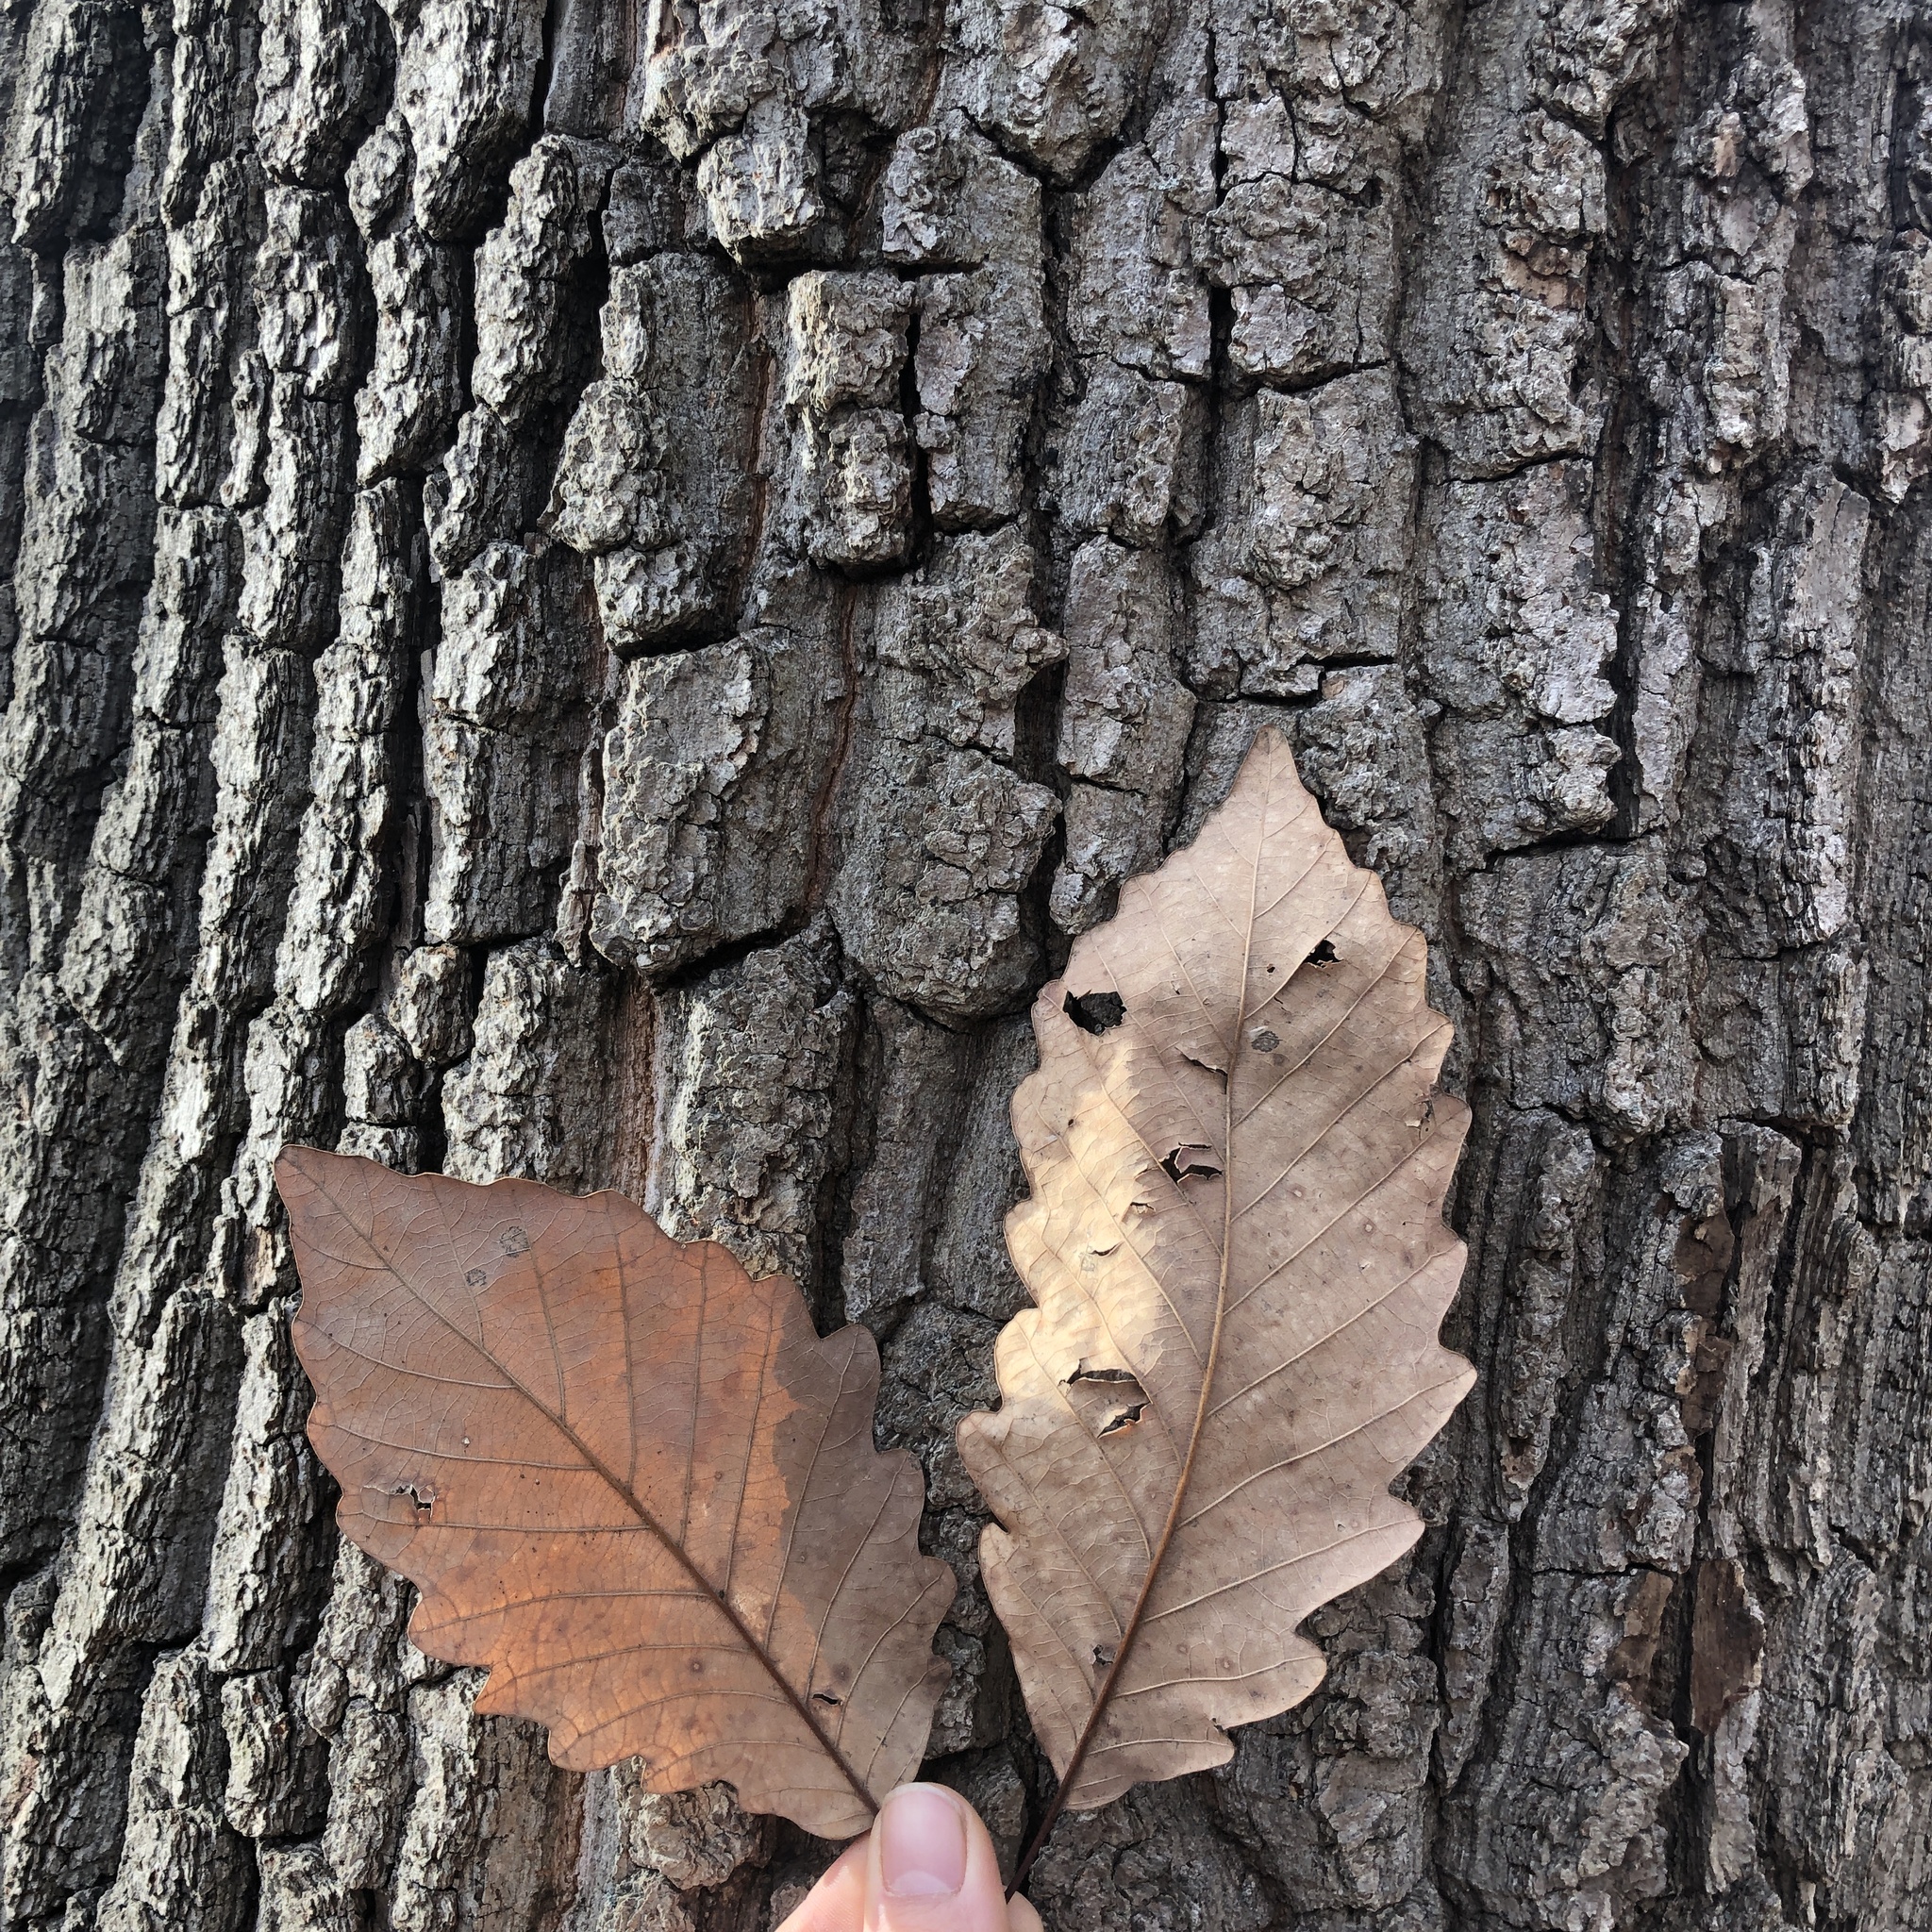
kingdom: Plantae
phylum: Tracheophyta
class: Magnoliopsida
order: Fagales
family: Fagaceae
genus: Quercus
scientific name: Quercus montana
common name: Chestnut oak
